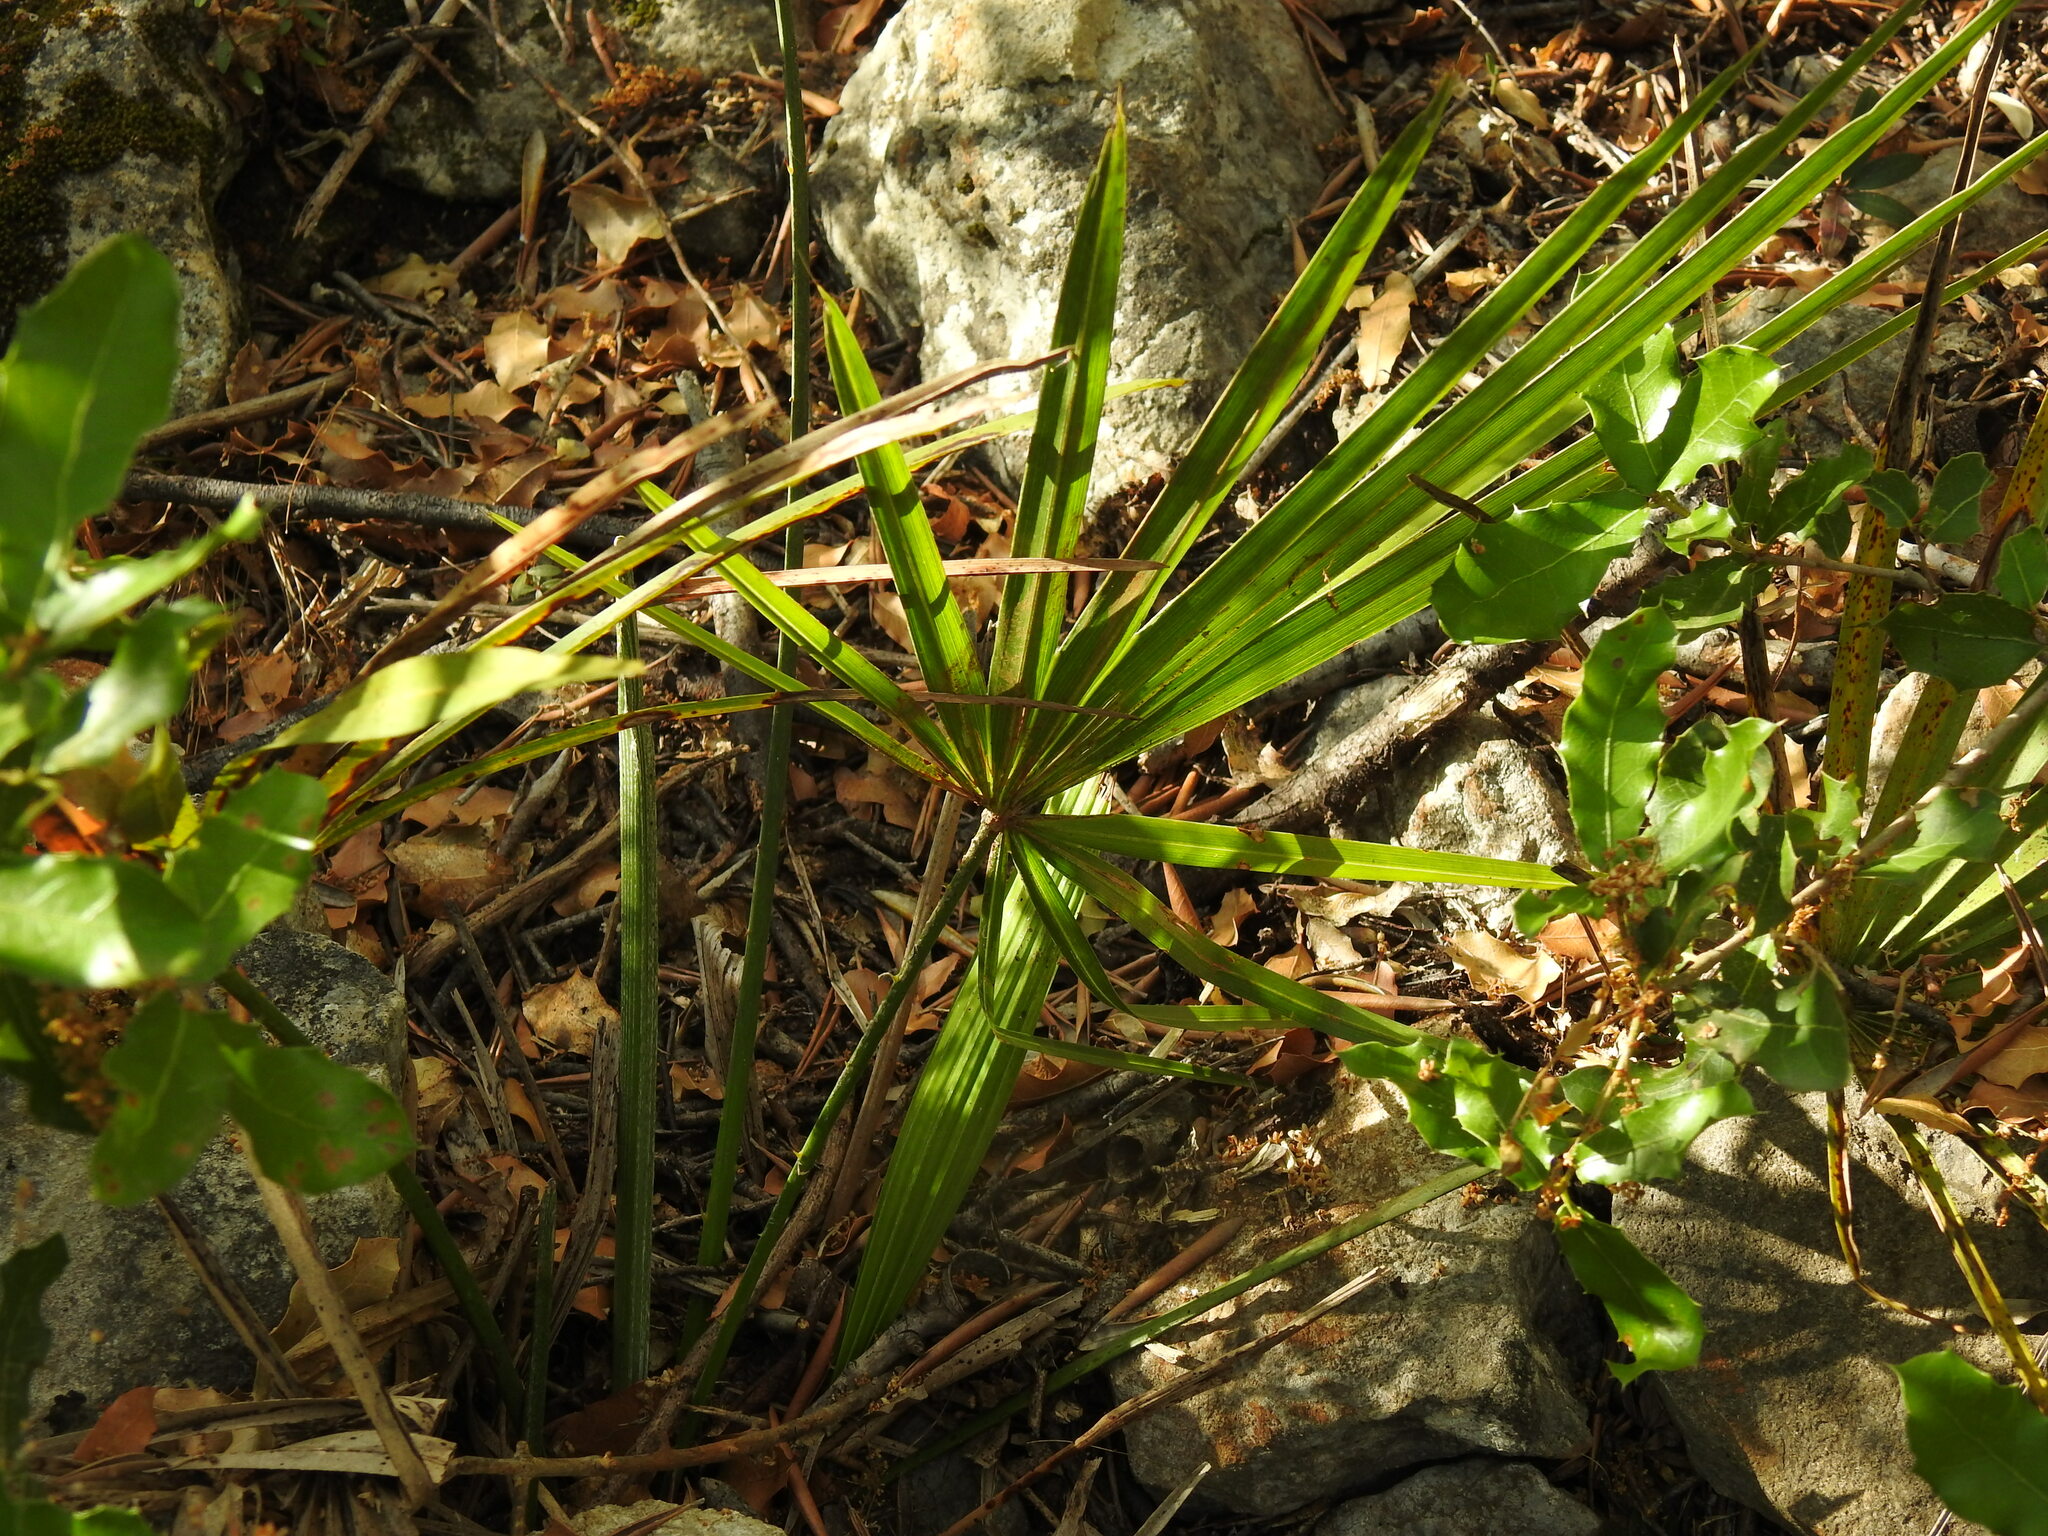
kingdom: Plantae
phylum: Tracheophyta
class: Liliopsida
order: Arecales
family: Arecaceae
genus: Chamaerops
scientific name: Chamaerops humilis
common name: Dwarf fan palm
